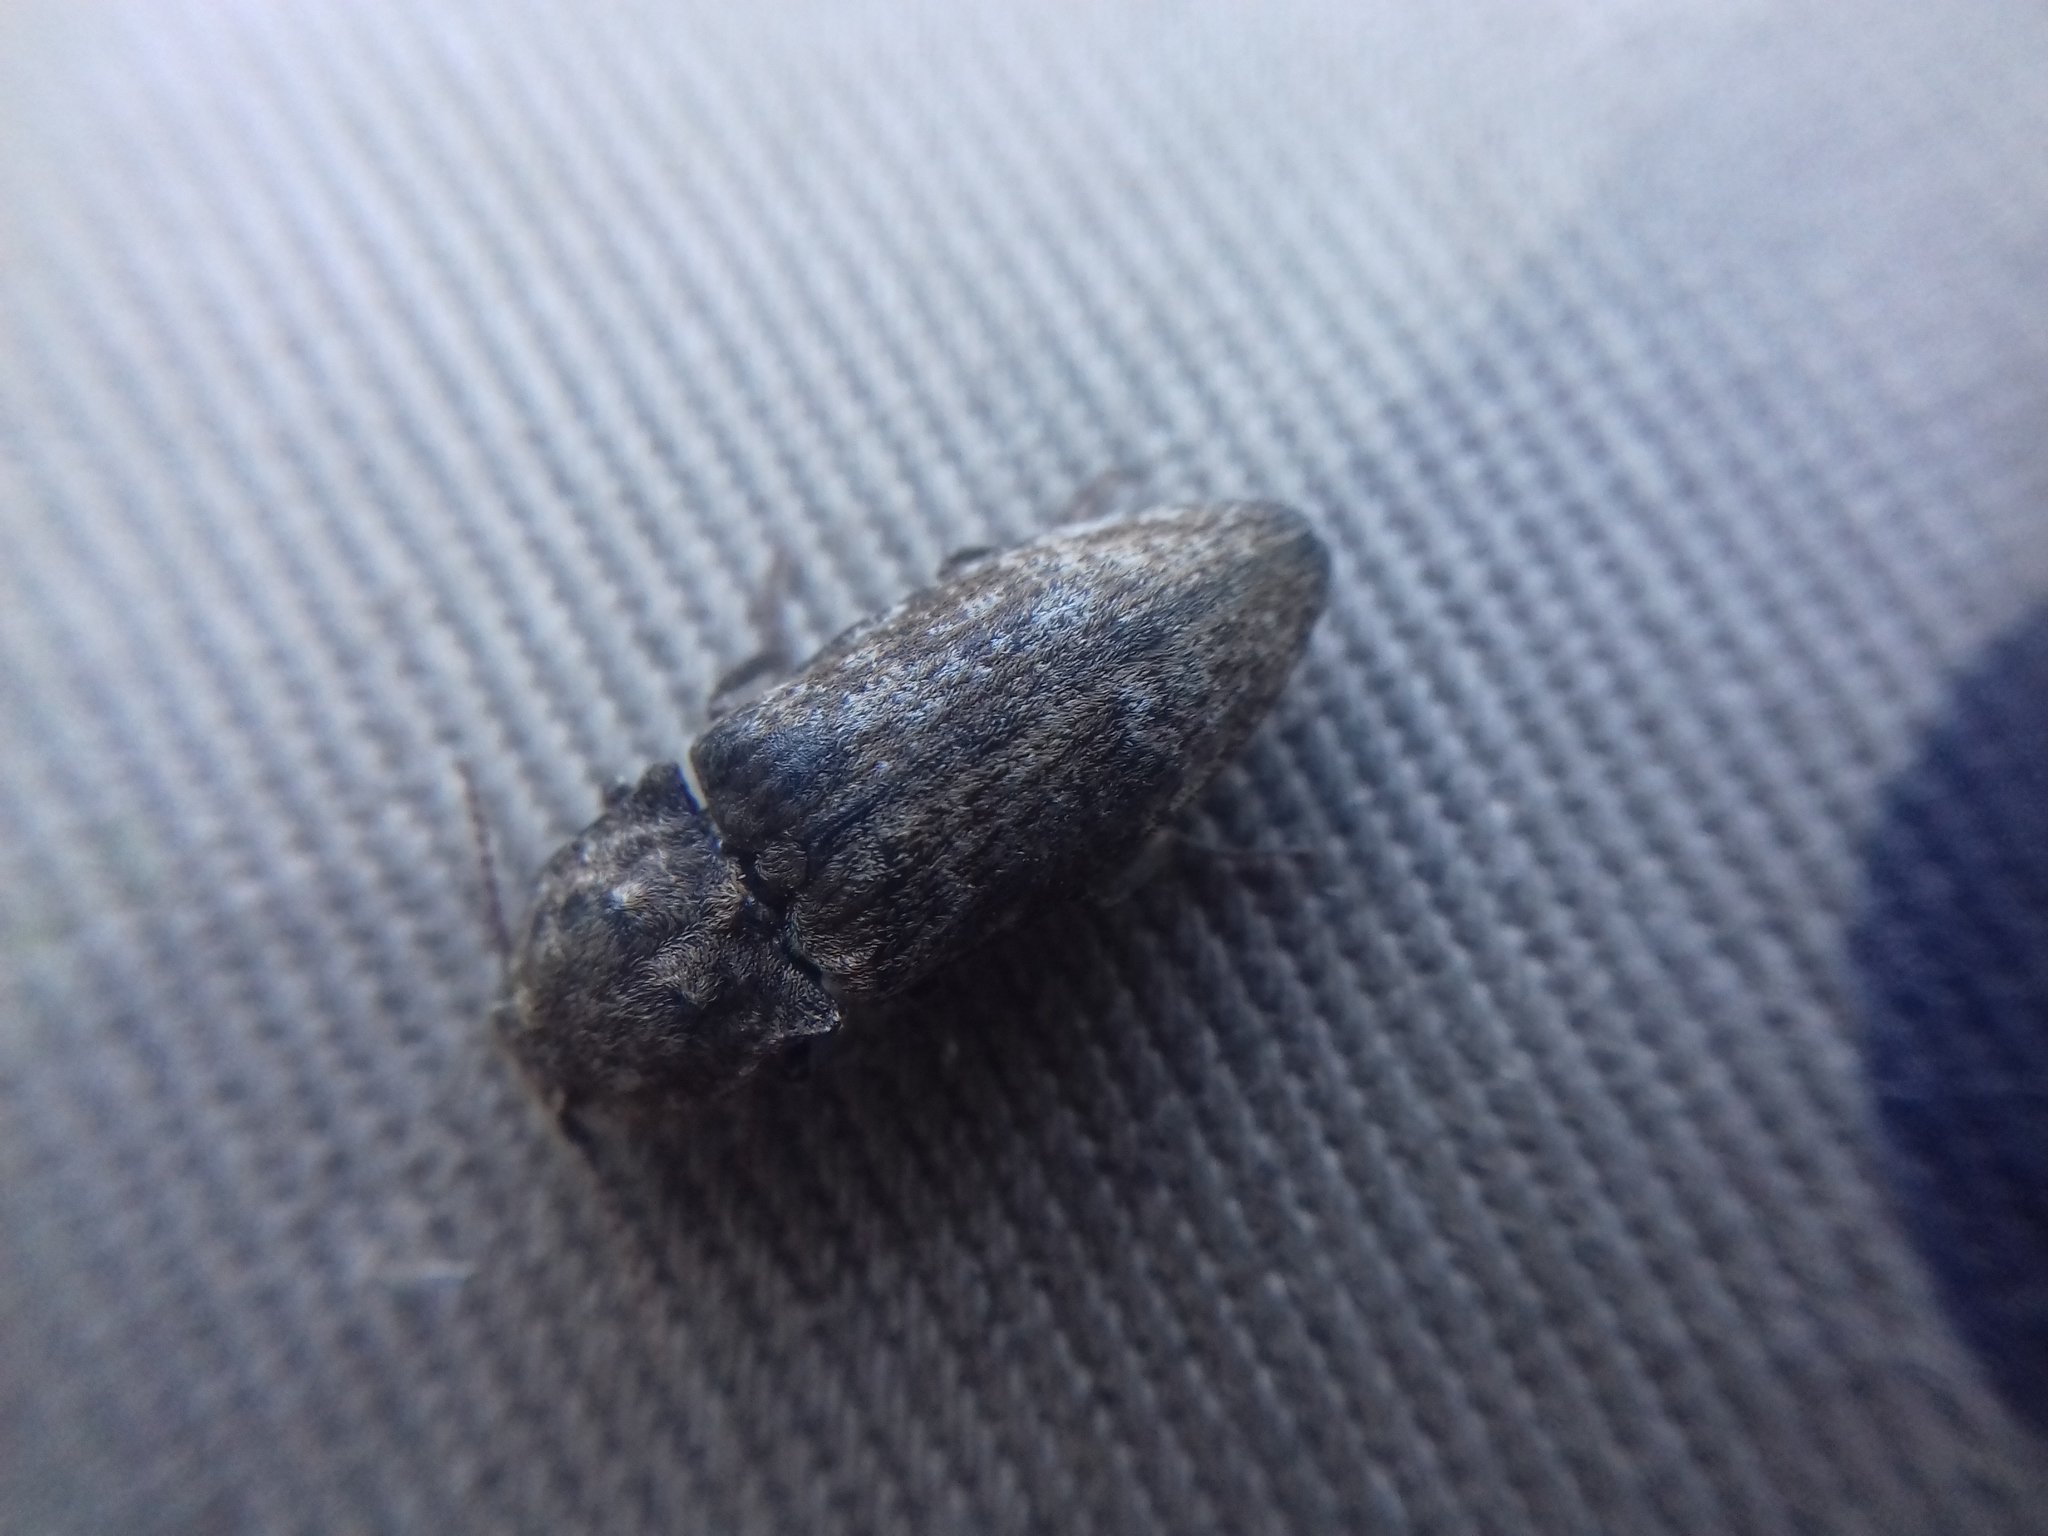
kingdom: Animalia
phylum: Arthropoda
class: Insecta
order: Coleoptera
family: Elateridae
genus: Agrypnus
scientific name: Agrypnus murinus
